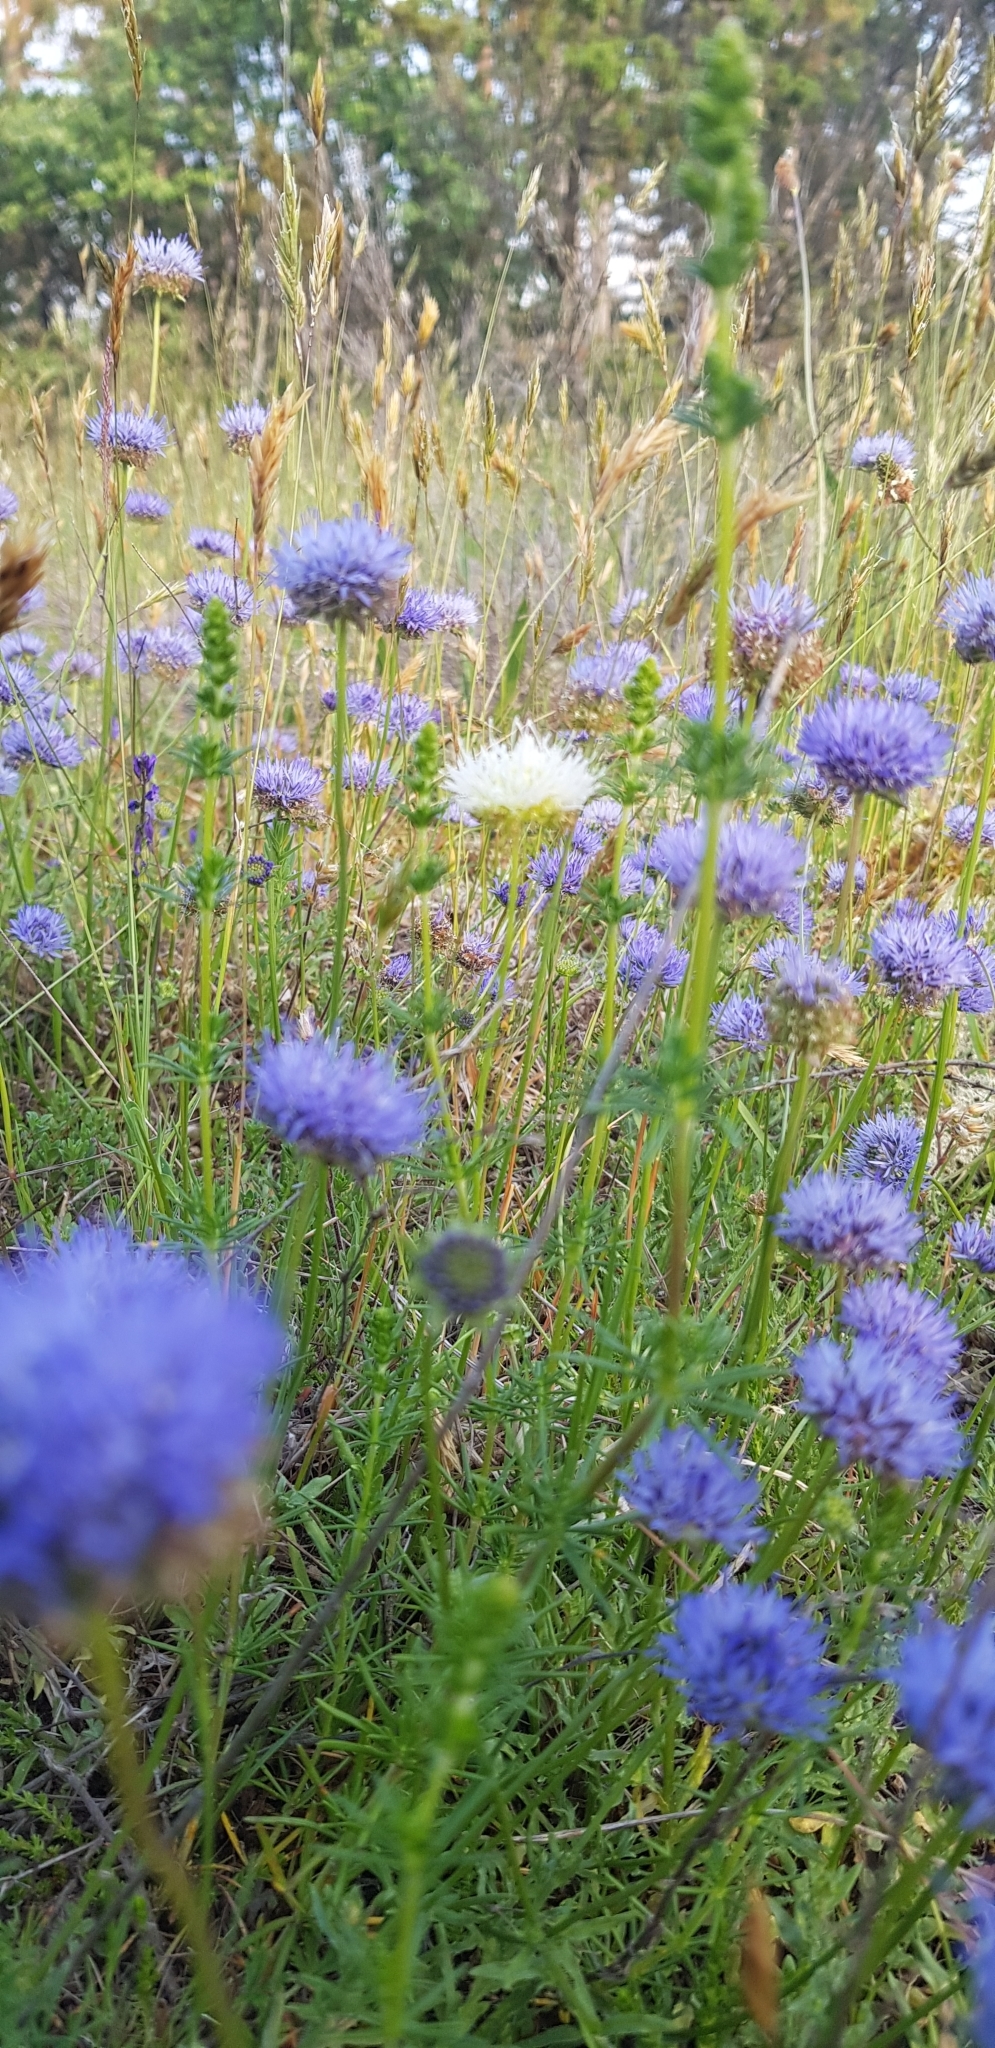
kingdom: Plantae
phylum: Tracheophyta
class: Magnoliopsida
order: Asterales
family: Campanulaceae
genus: Jasione
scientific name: Jasione montana
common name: Sheep's-bit
